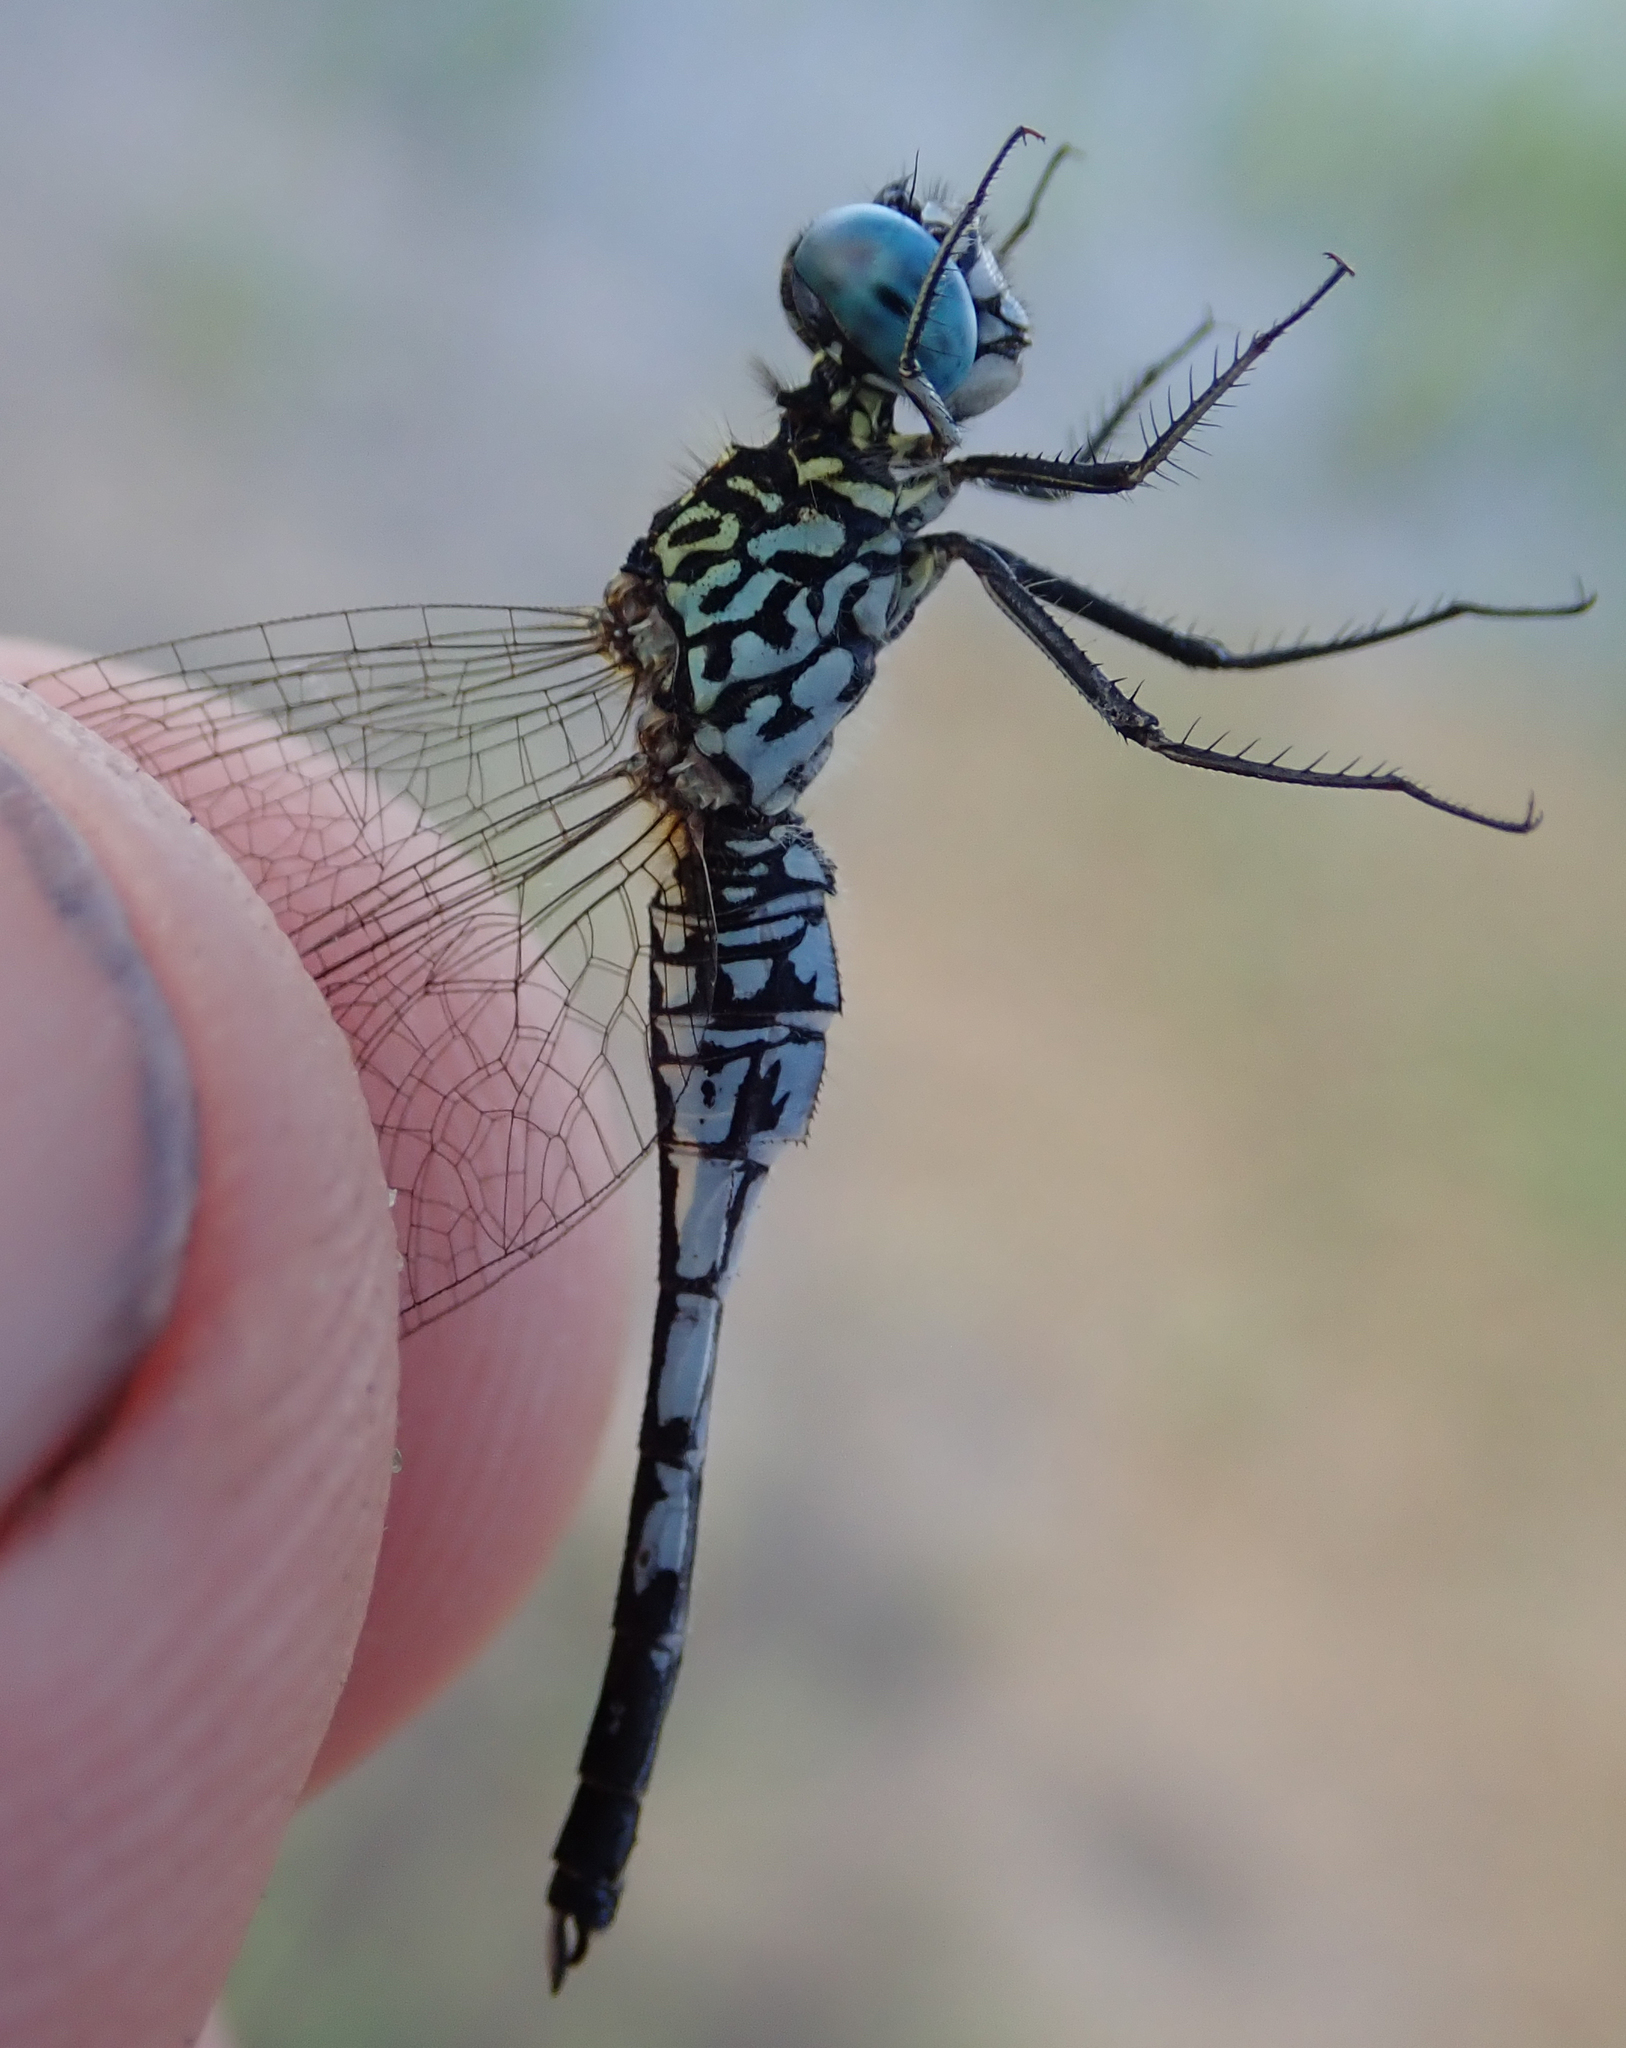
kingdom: Animalia
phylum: Arthropoda
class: Insecta
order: Odonata
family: Libellulidae
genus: Acisoma
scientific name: Acisoma inflatum
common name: Stout pintail
